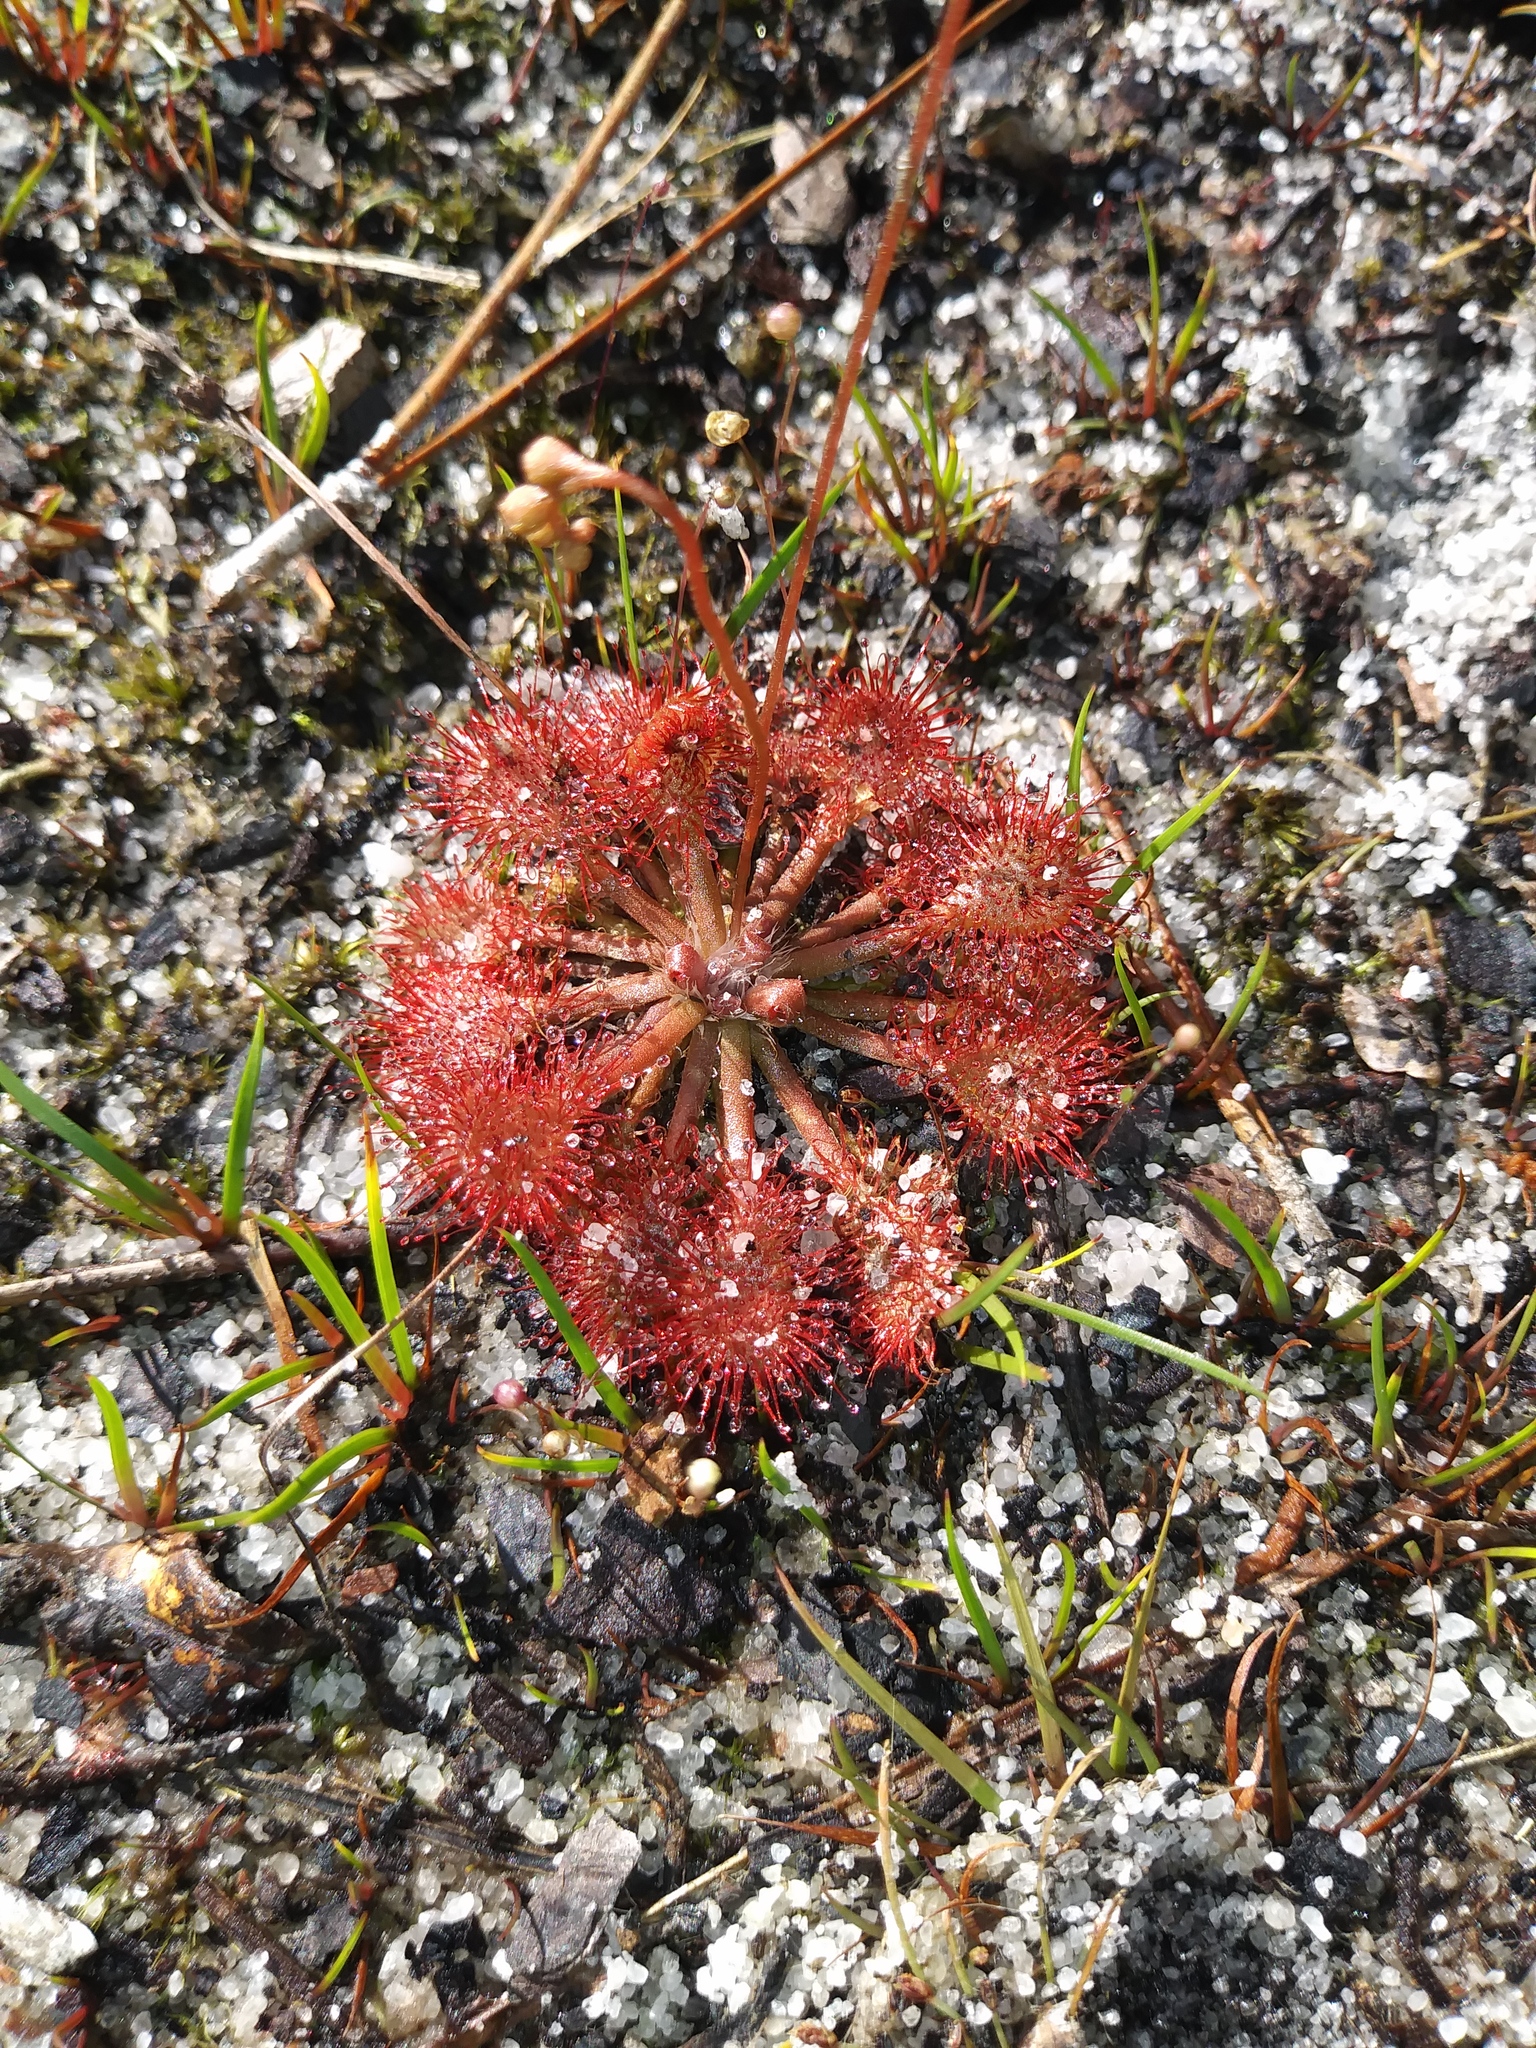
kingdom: Plantae
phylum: Tracheophyta
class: Magnoliopsida
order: Caryophyllales
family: Droseraceae
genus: Drosera
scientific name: Drosera capillaris
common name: Pink sundew
